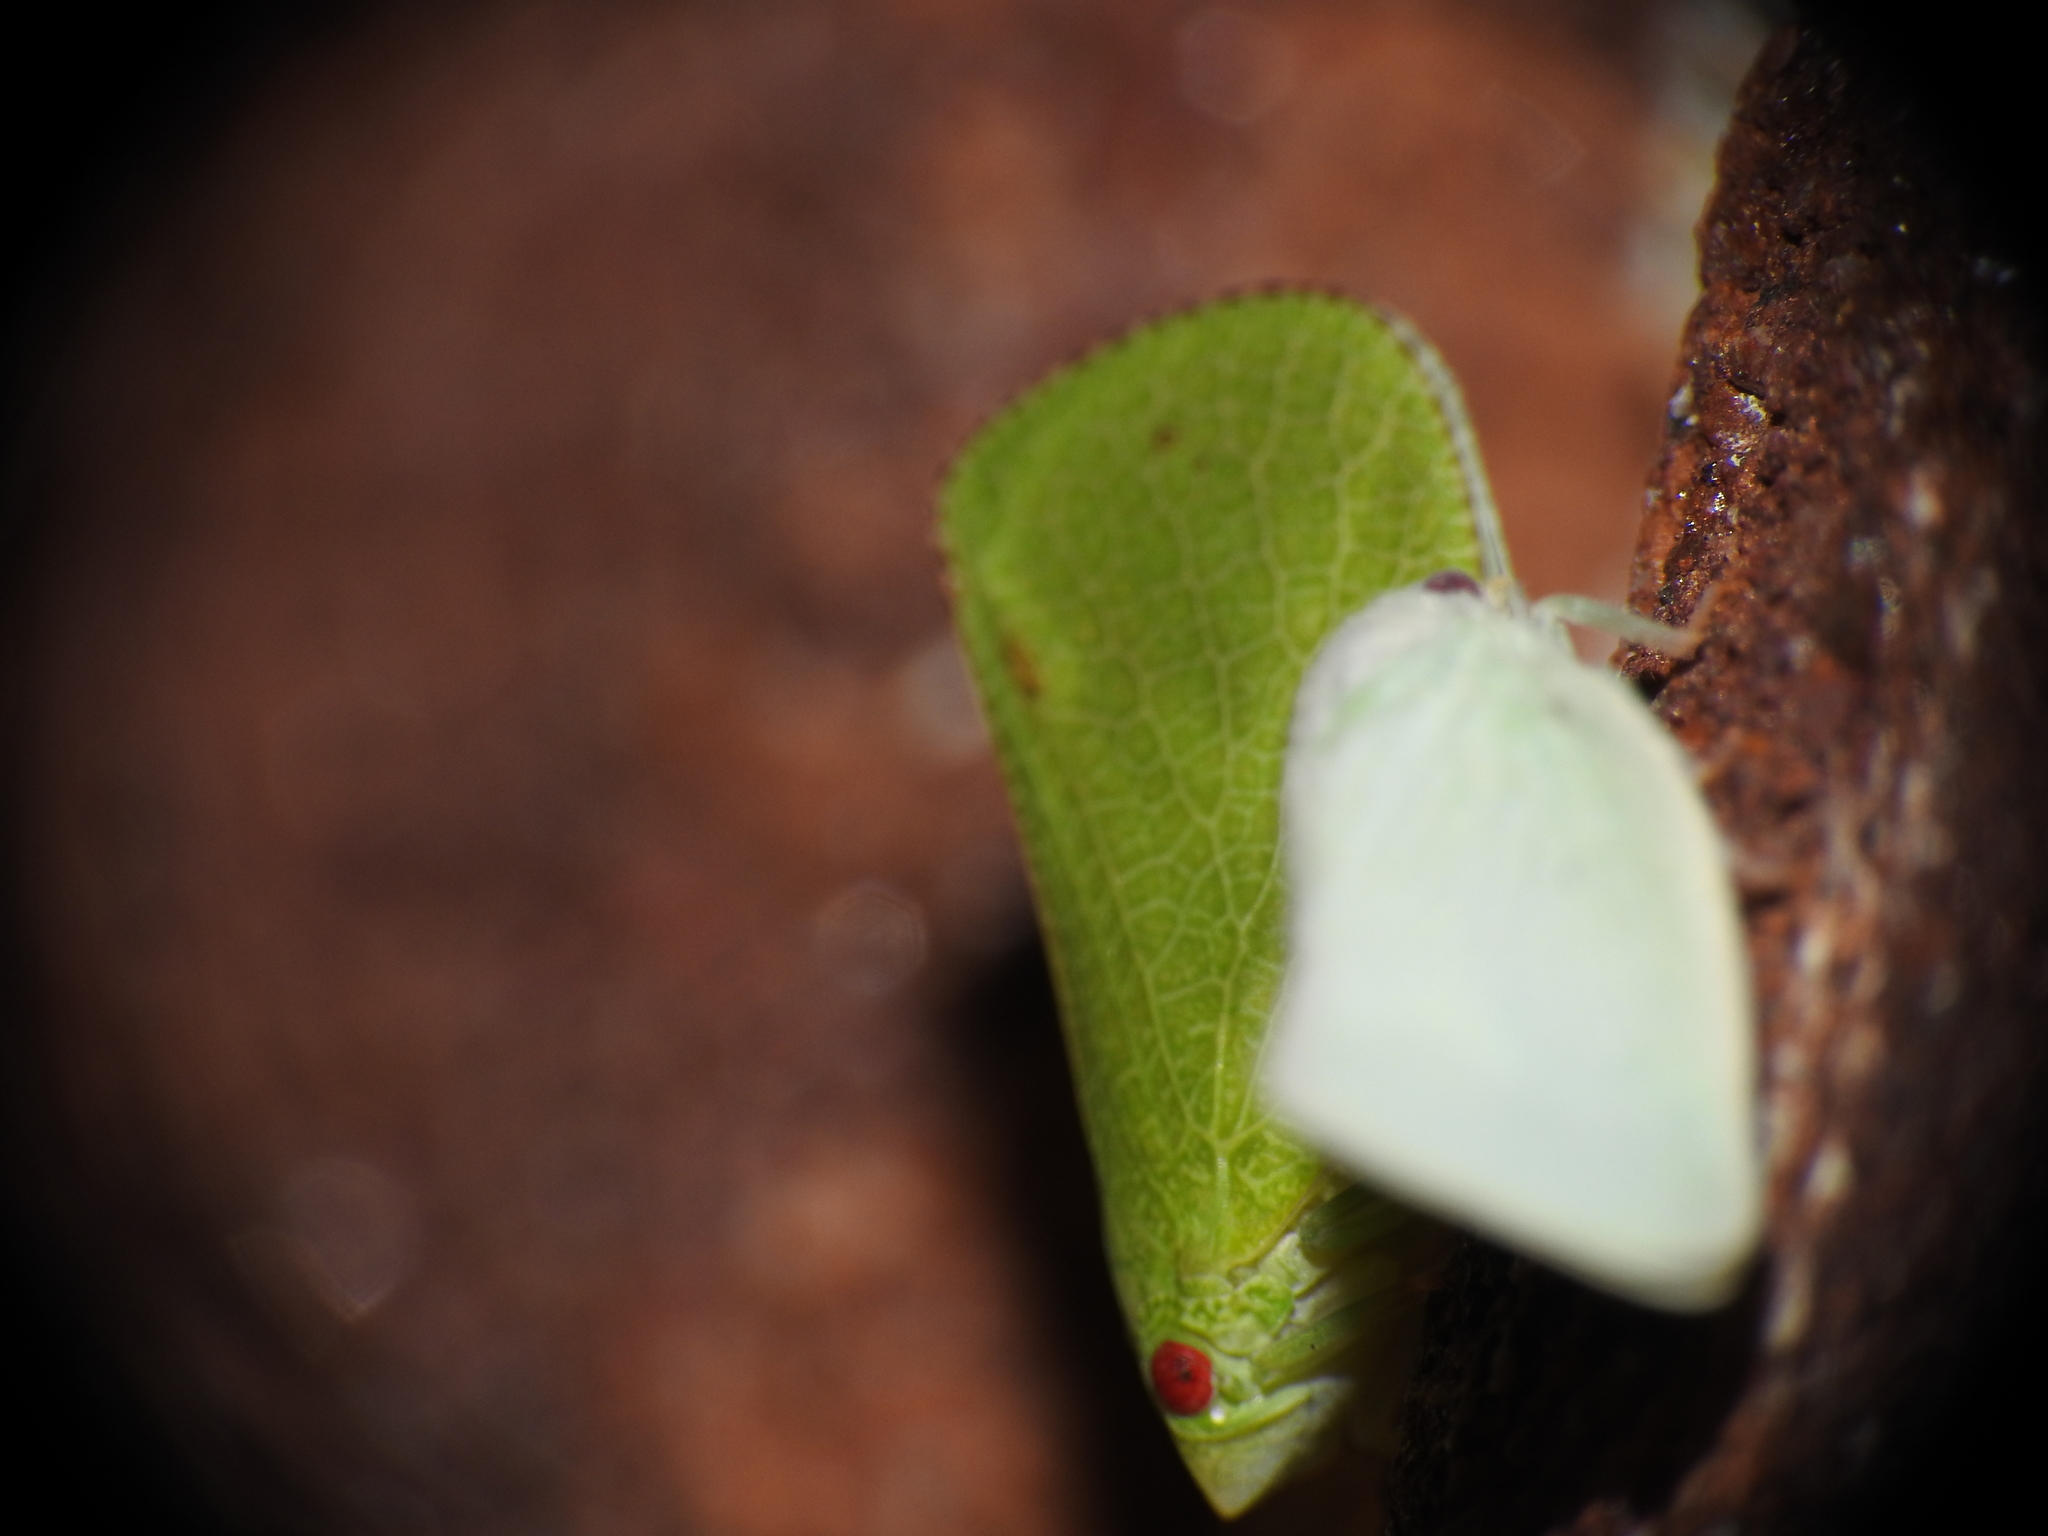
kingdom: Animalia
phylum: Arthropoda
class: Insecta
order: Hemiptera
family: Acanaloniidae
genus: Acanalonia
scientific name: Acanalonia conica
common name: Green cone-headed planthopper
